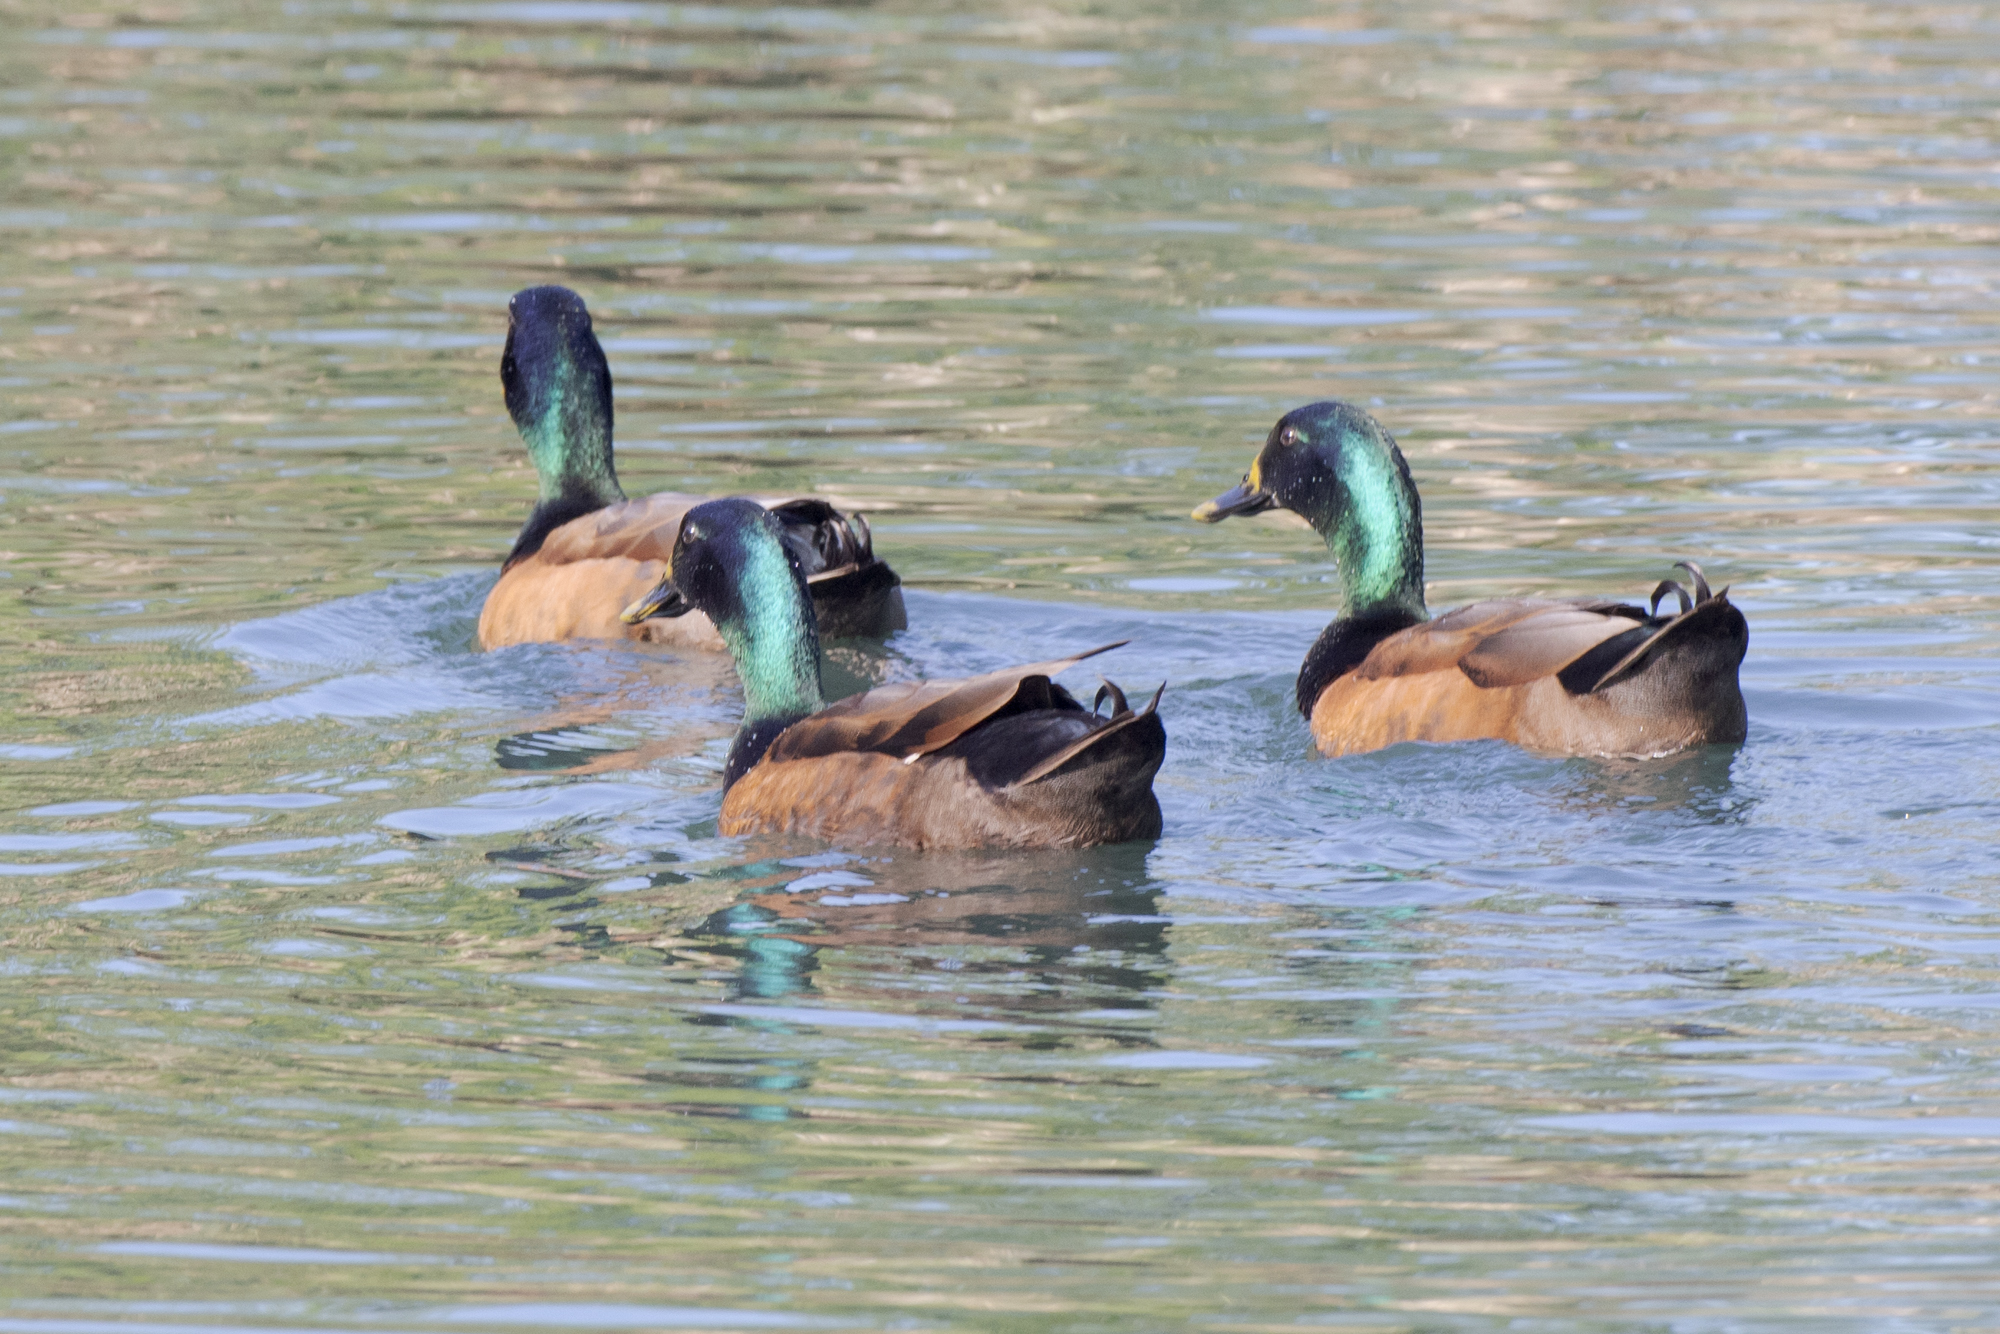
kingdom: Animalia
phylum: Chordata
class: Aves
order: Anseriformes
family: Anatidae
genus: Anas
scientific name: Anas platyrhynchos
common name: Mallard
